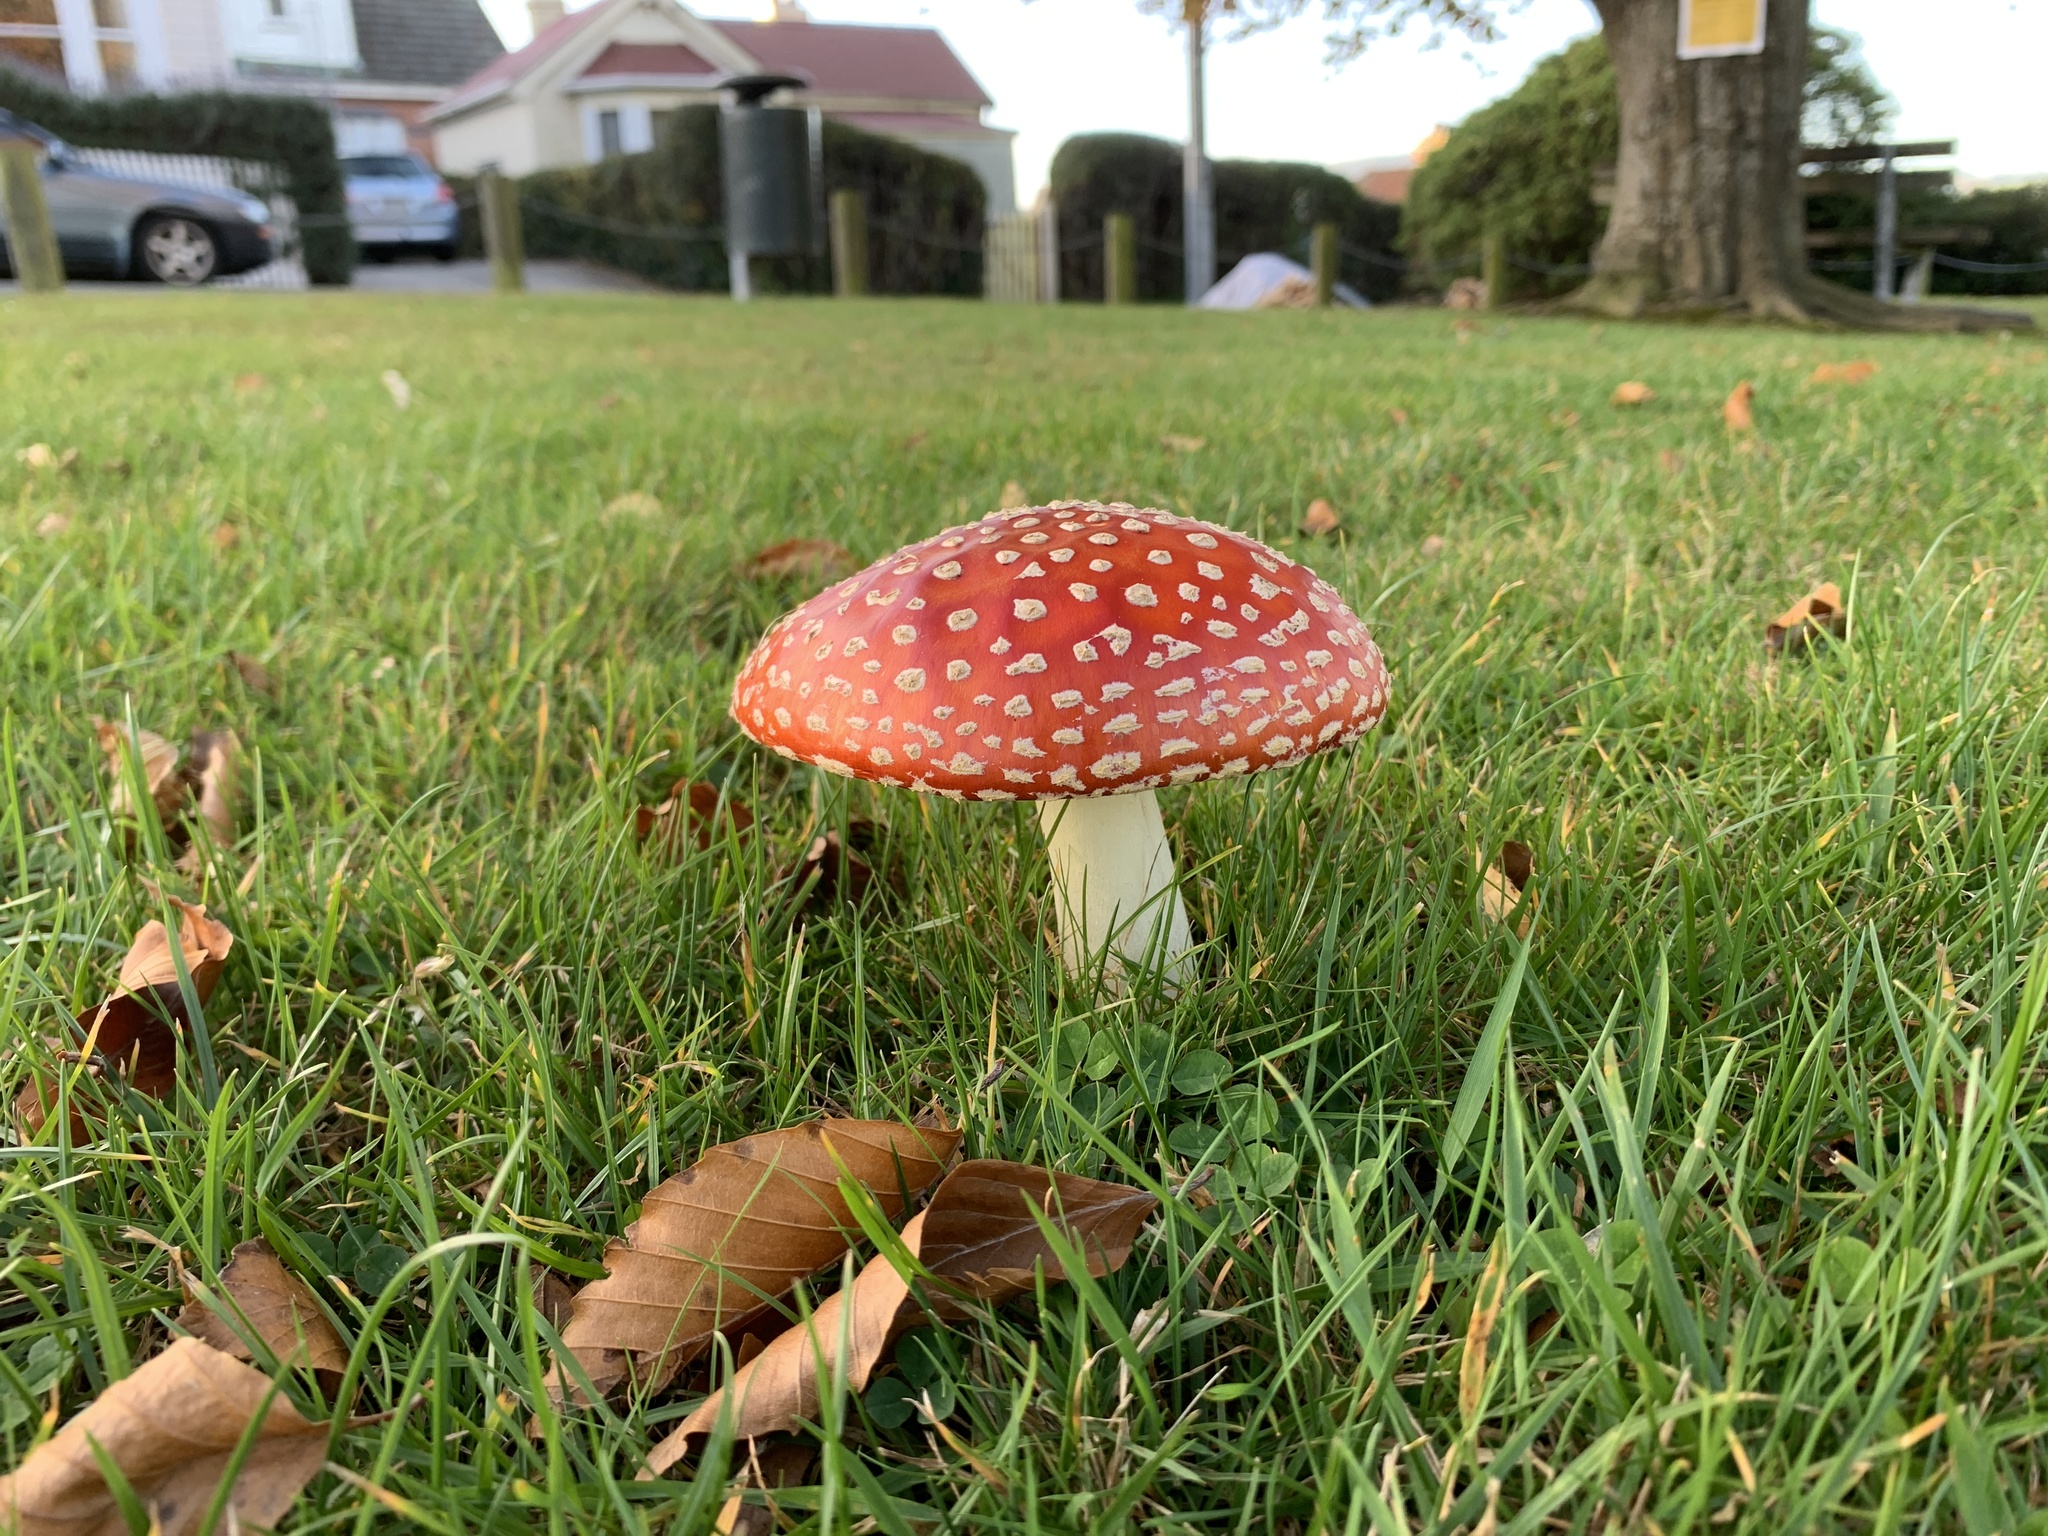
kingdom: Fungi
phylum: Basidiomycota
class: Agaricomycetes
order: Agaricales
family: Amanitaceae
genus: Amanita
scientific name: Amanita muscaria
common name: Fly agaric
